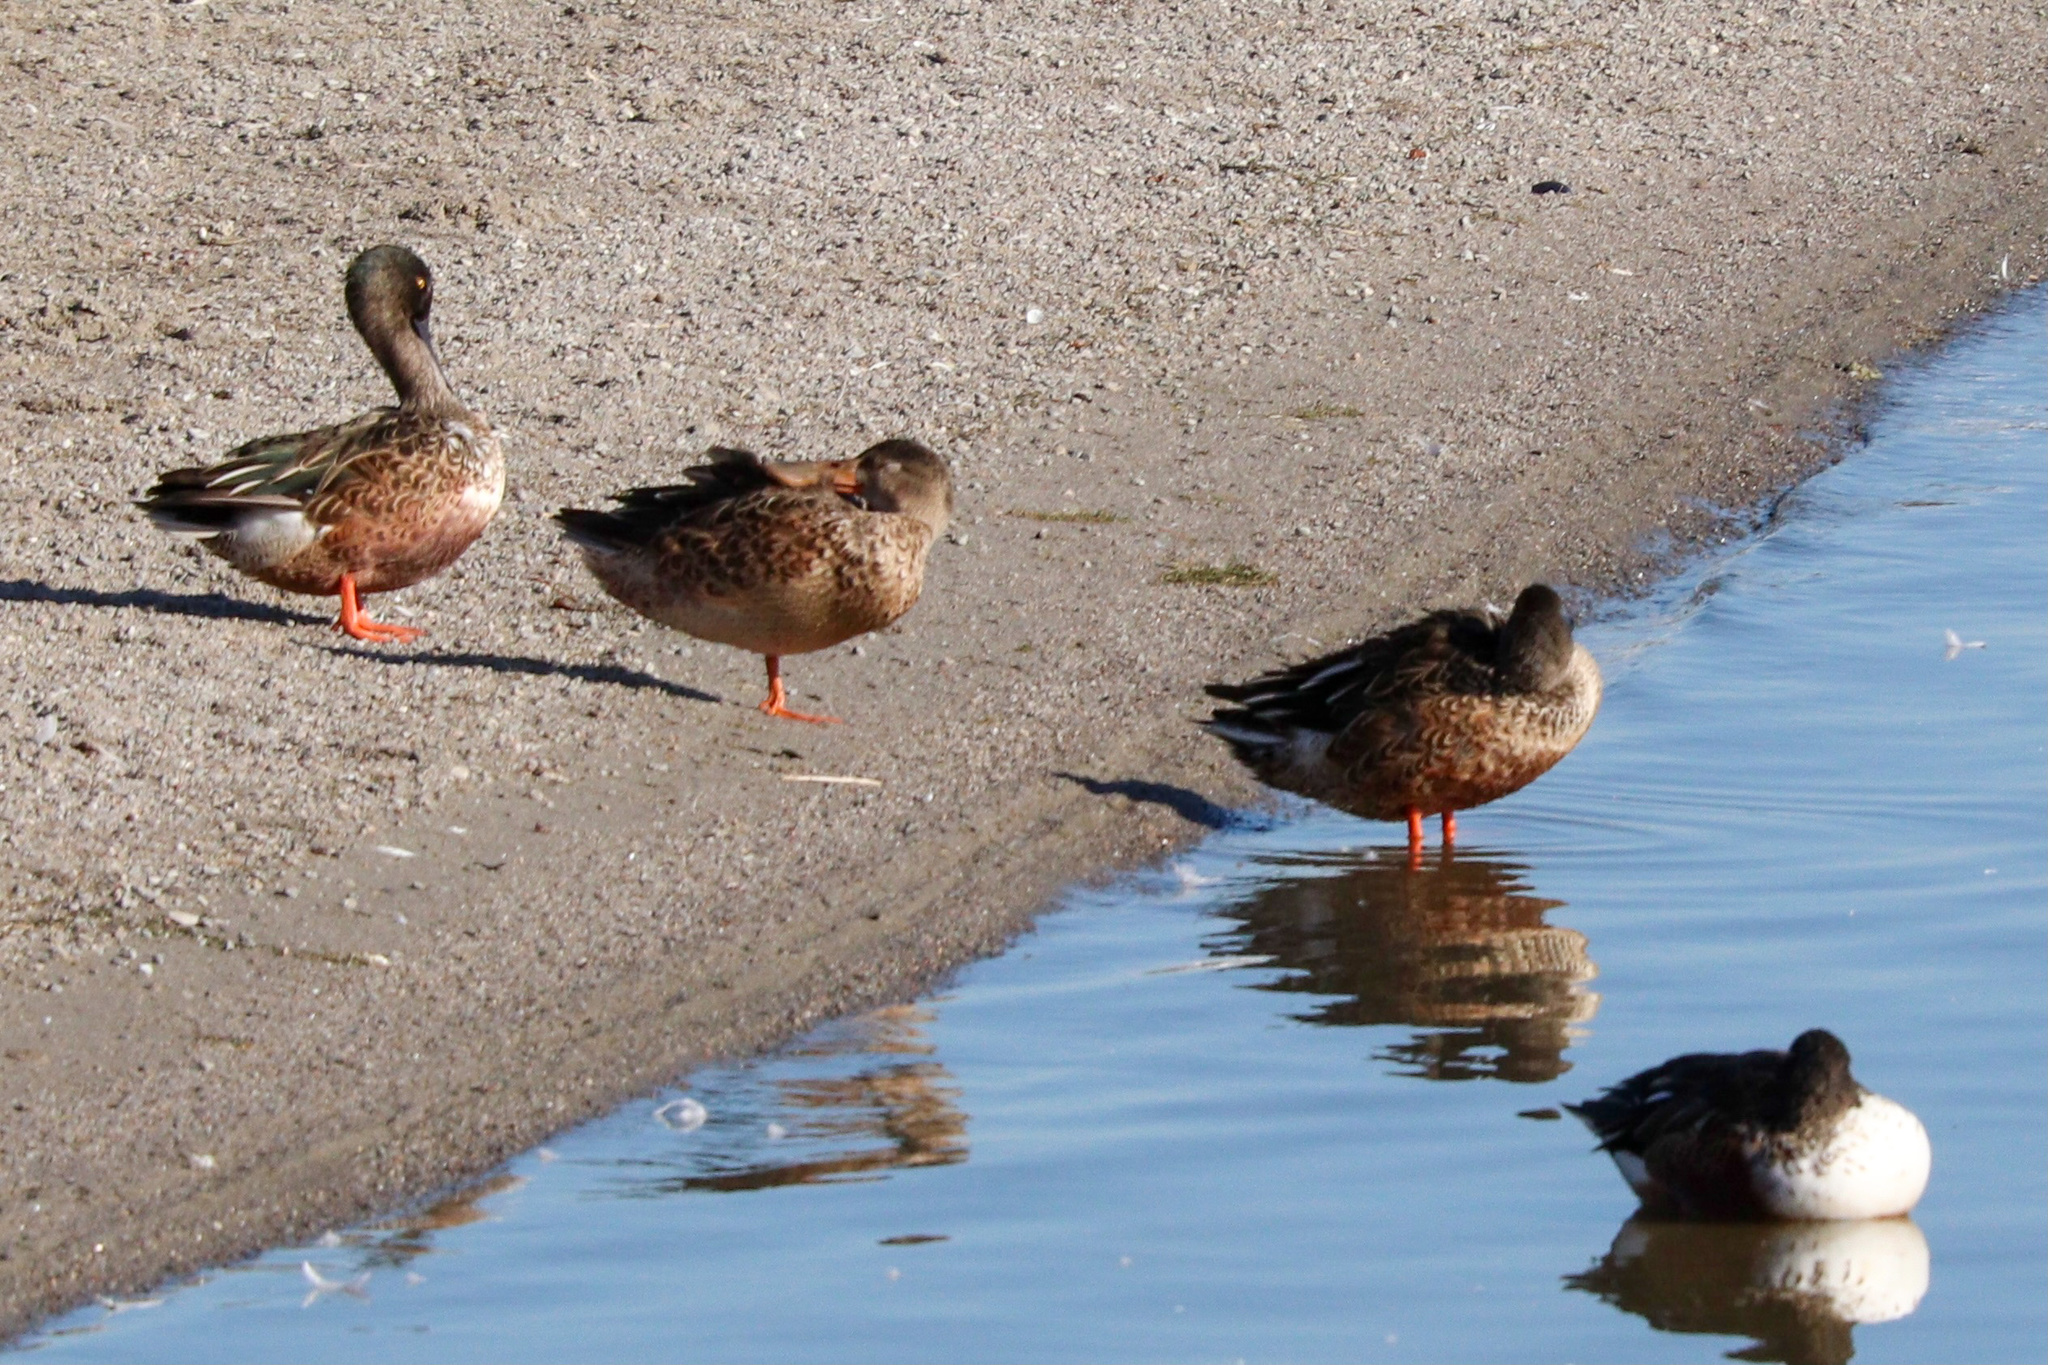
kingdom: Animalia
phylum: Chordata
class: Aves
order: Anseriformes
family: Anatidae
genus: Spatula
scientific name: Spatula clypeata
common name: Northern shoveler
